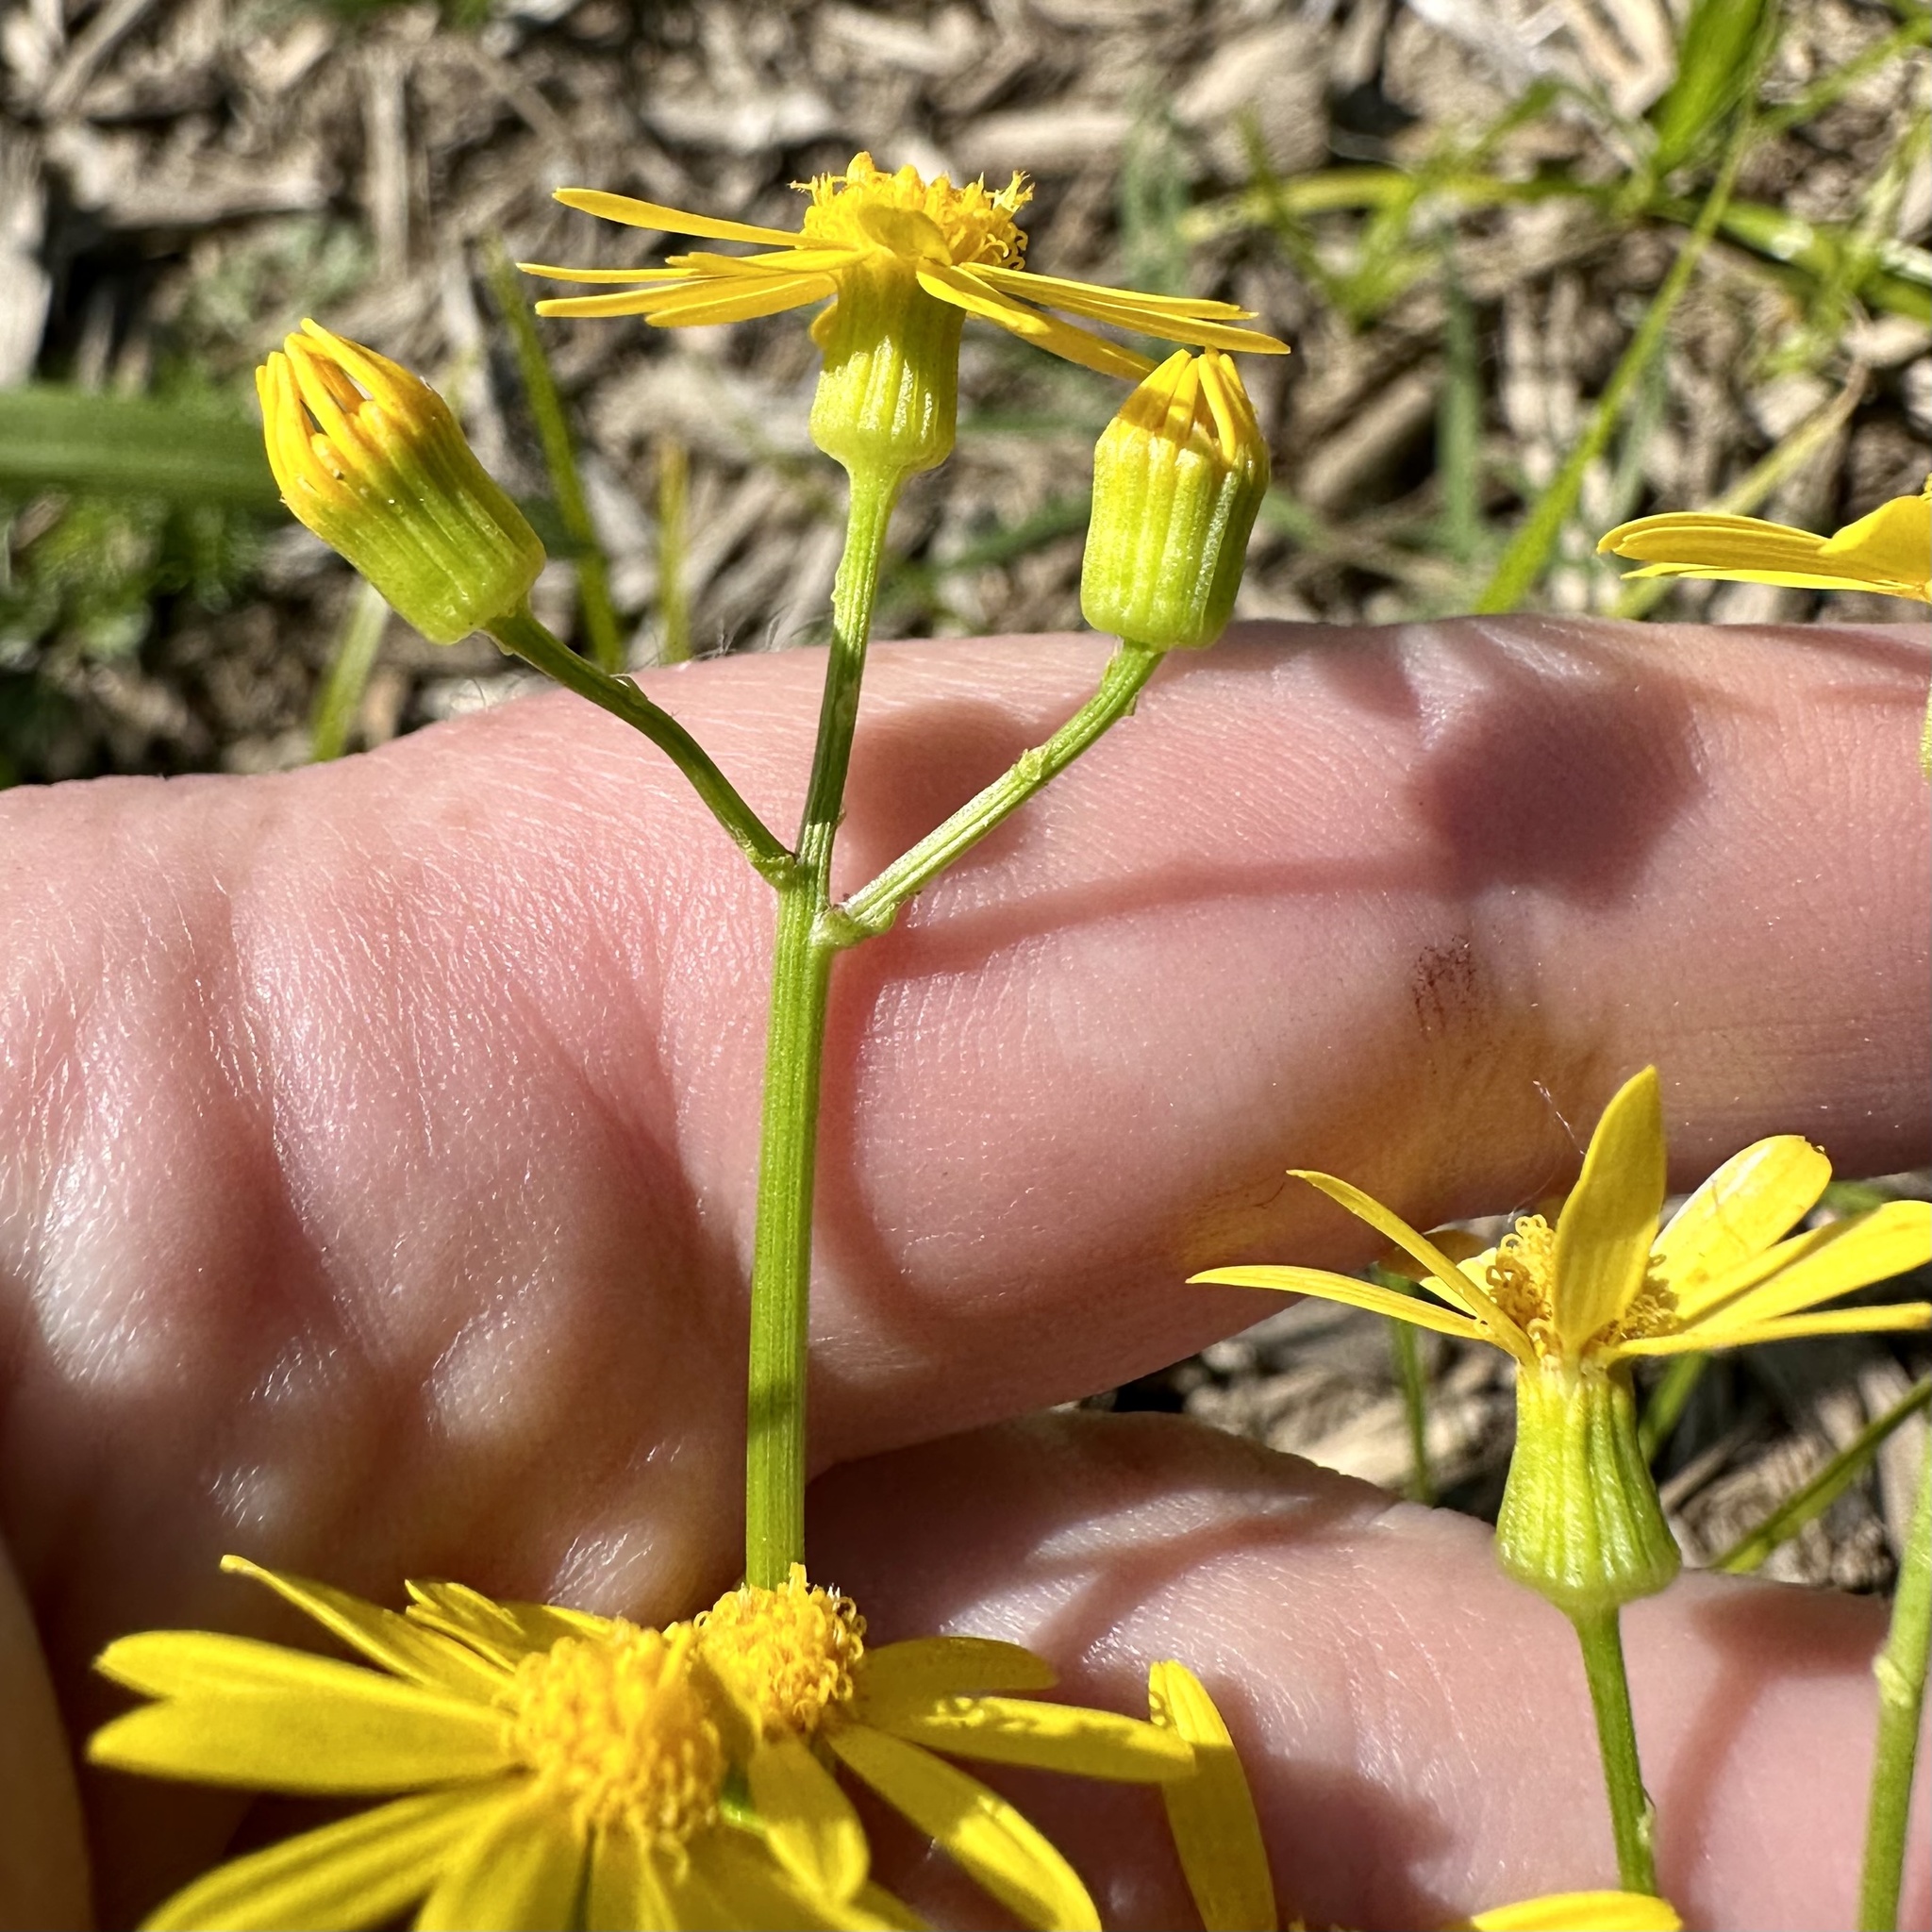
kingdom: Plantae
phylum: Tracheophyta
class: Magnoliopsida
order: Asterales
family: Asteraceae
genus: Packera
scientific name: Packera glabella
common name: Butterweed
